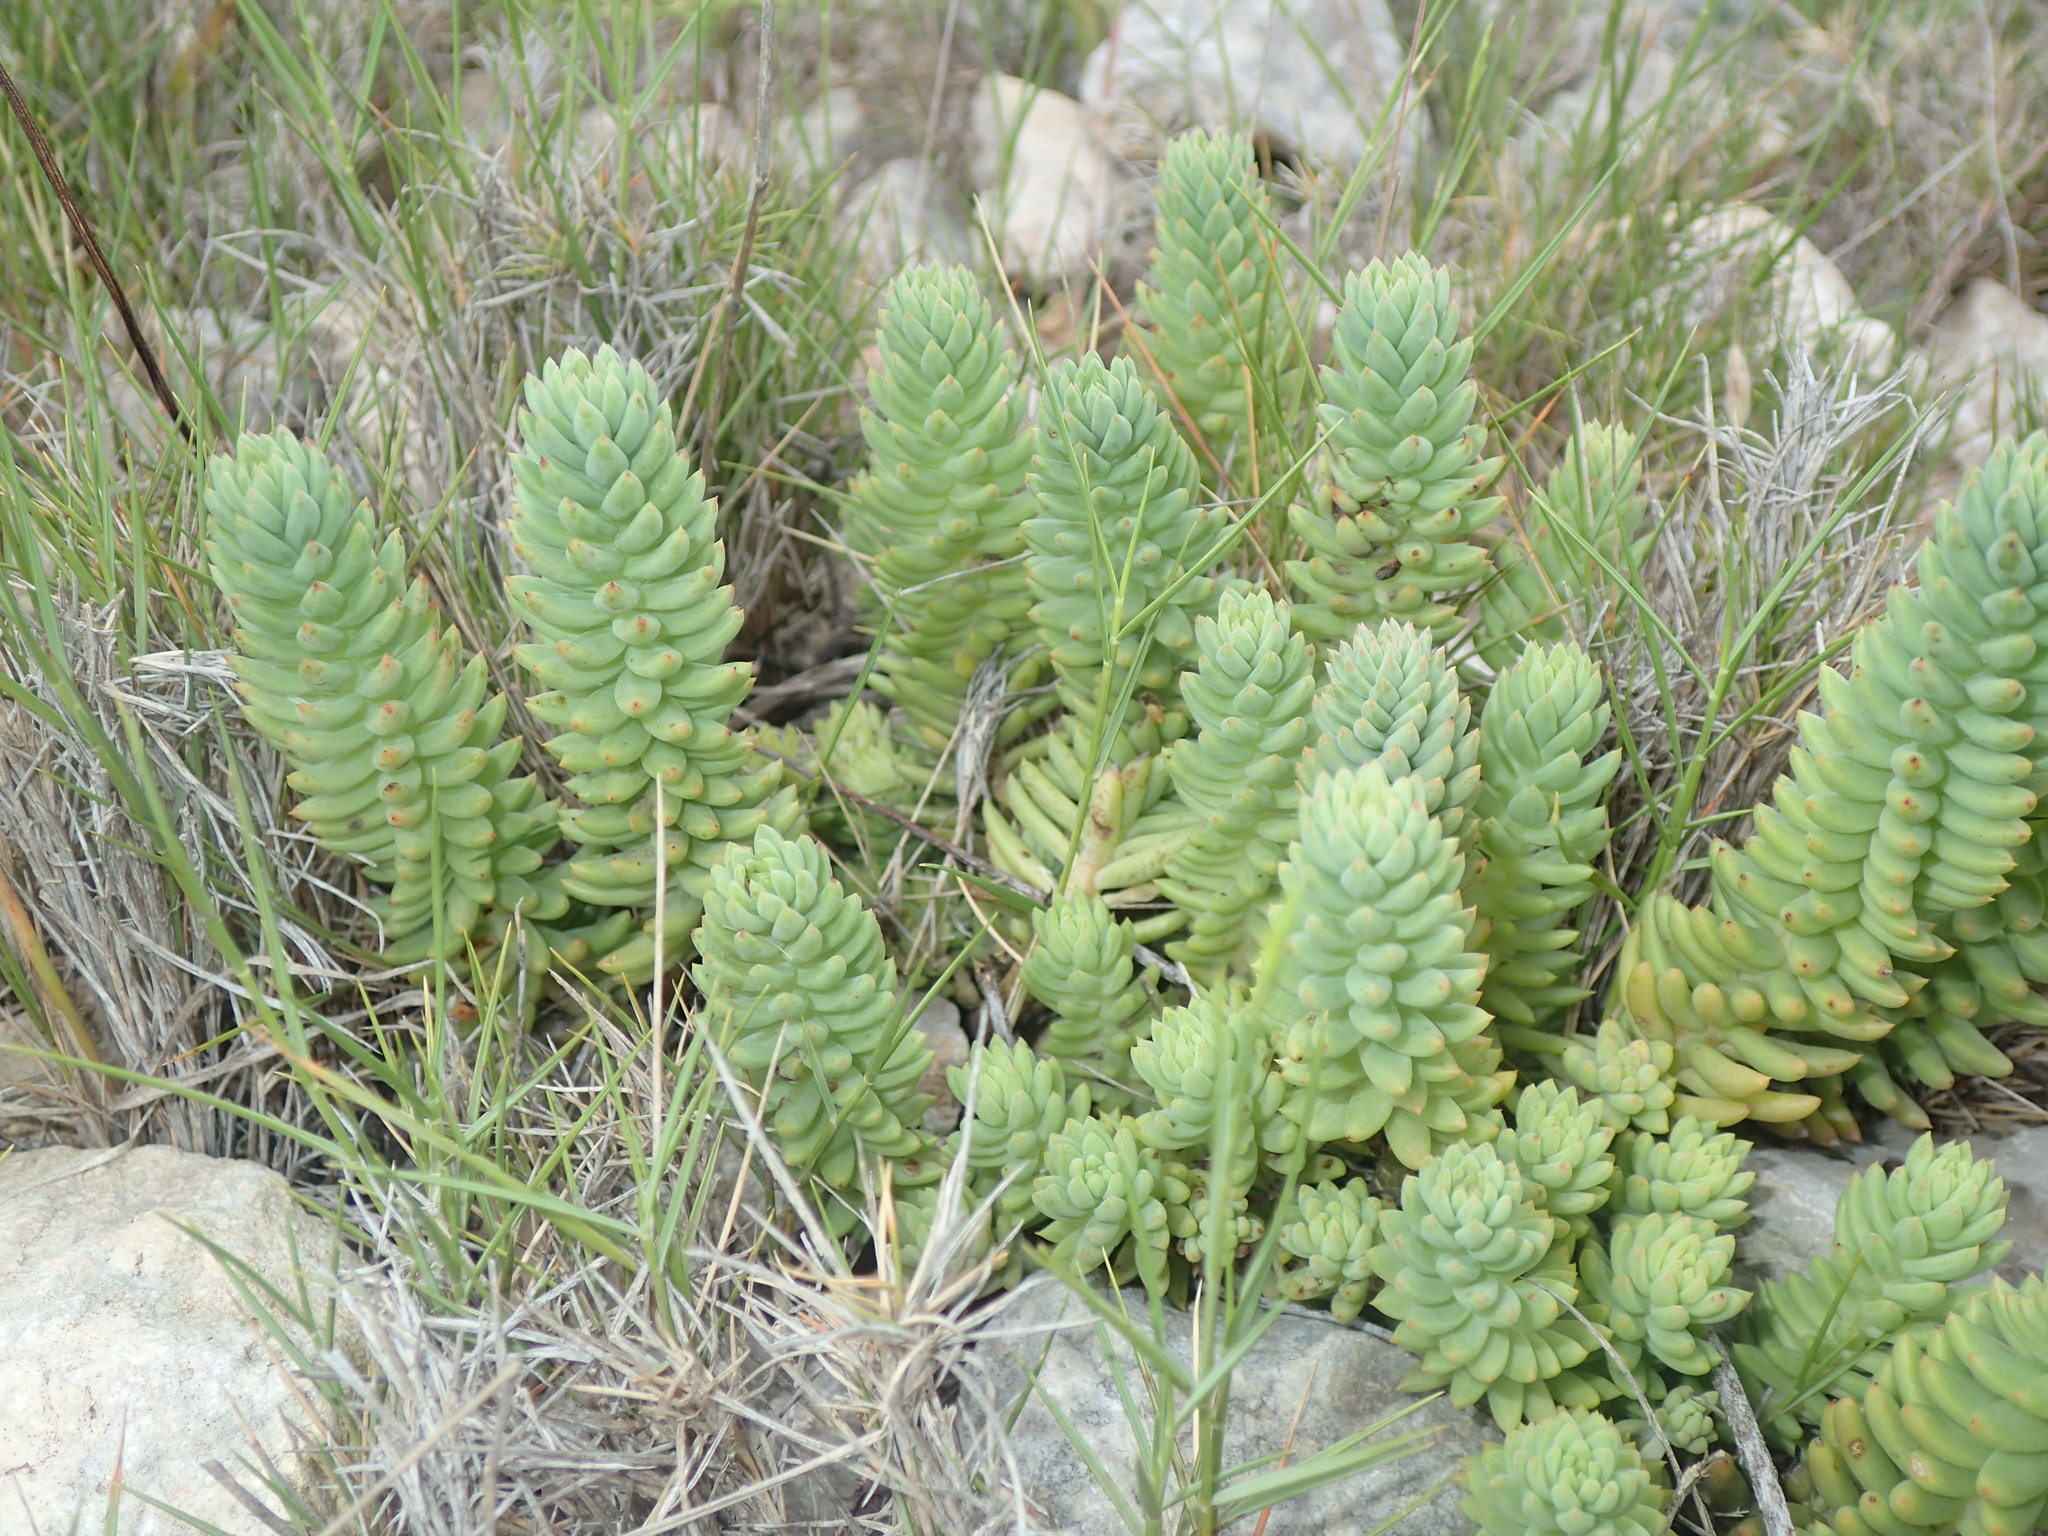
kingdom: Plantae
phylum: Tracheophyta
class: Magnoliopsida
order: Saxifragales
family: Crassulaceae
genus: Petrosedum
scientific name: Petrosedum sediforme
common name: Pale stonecrop
